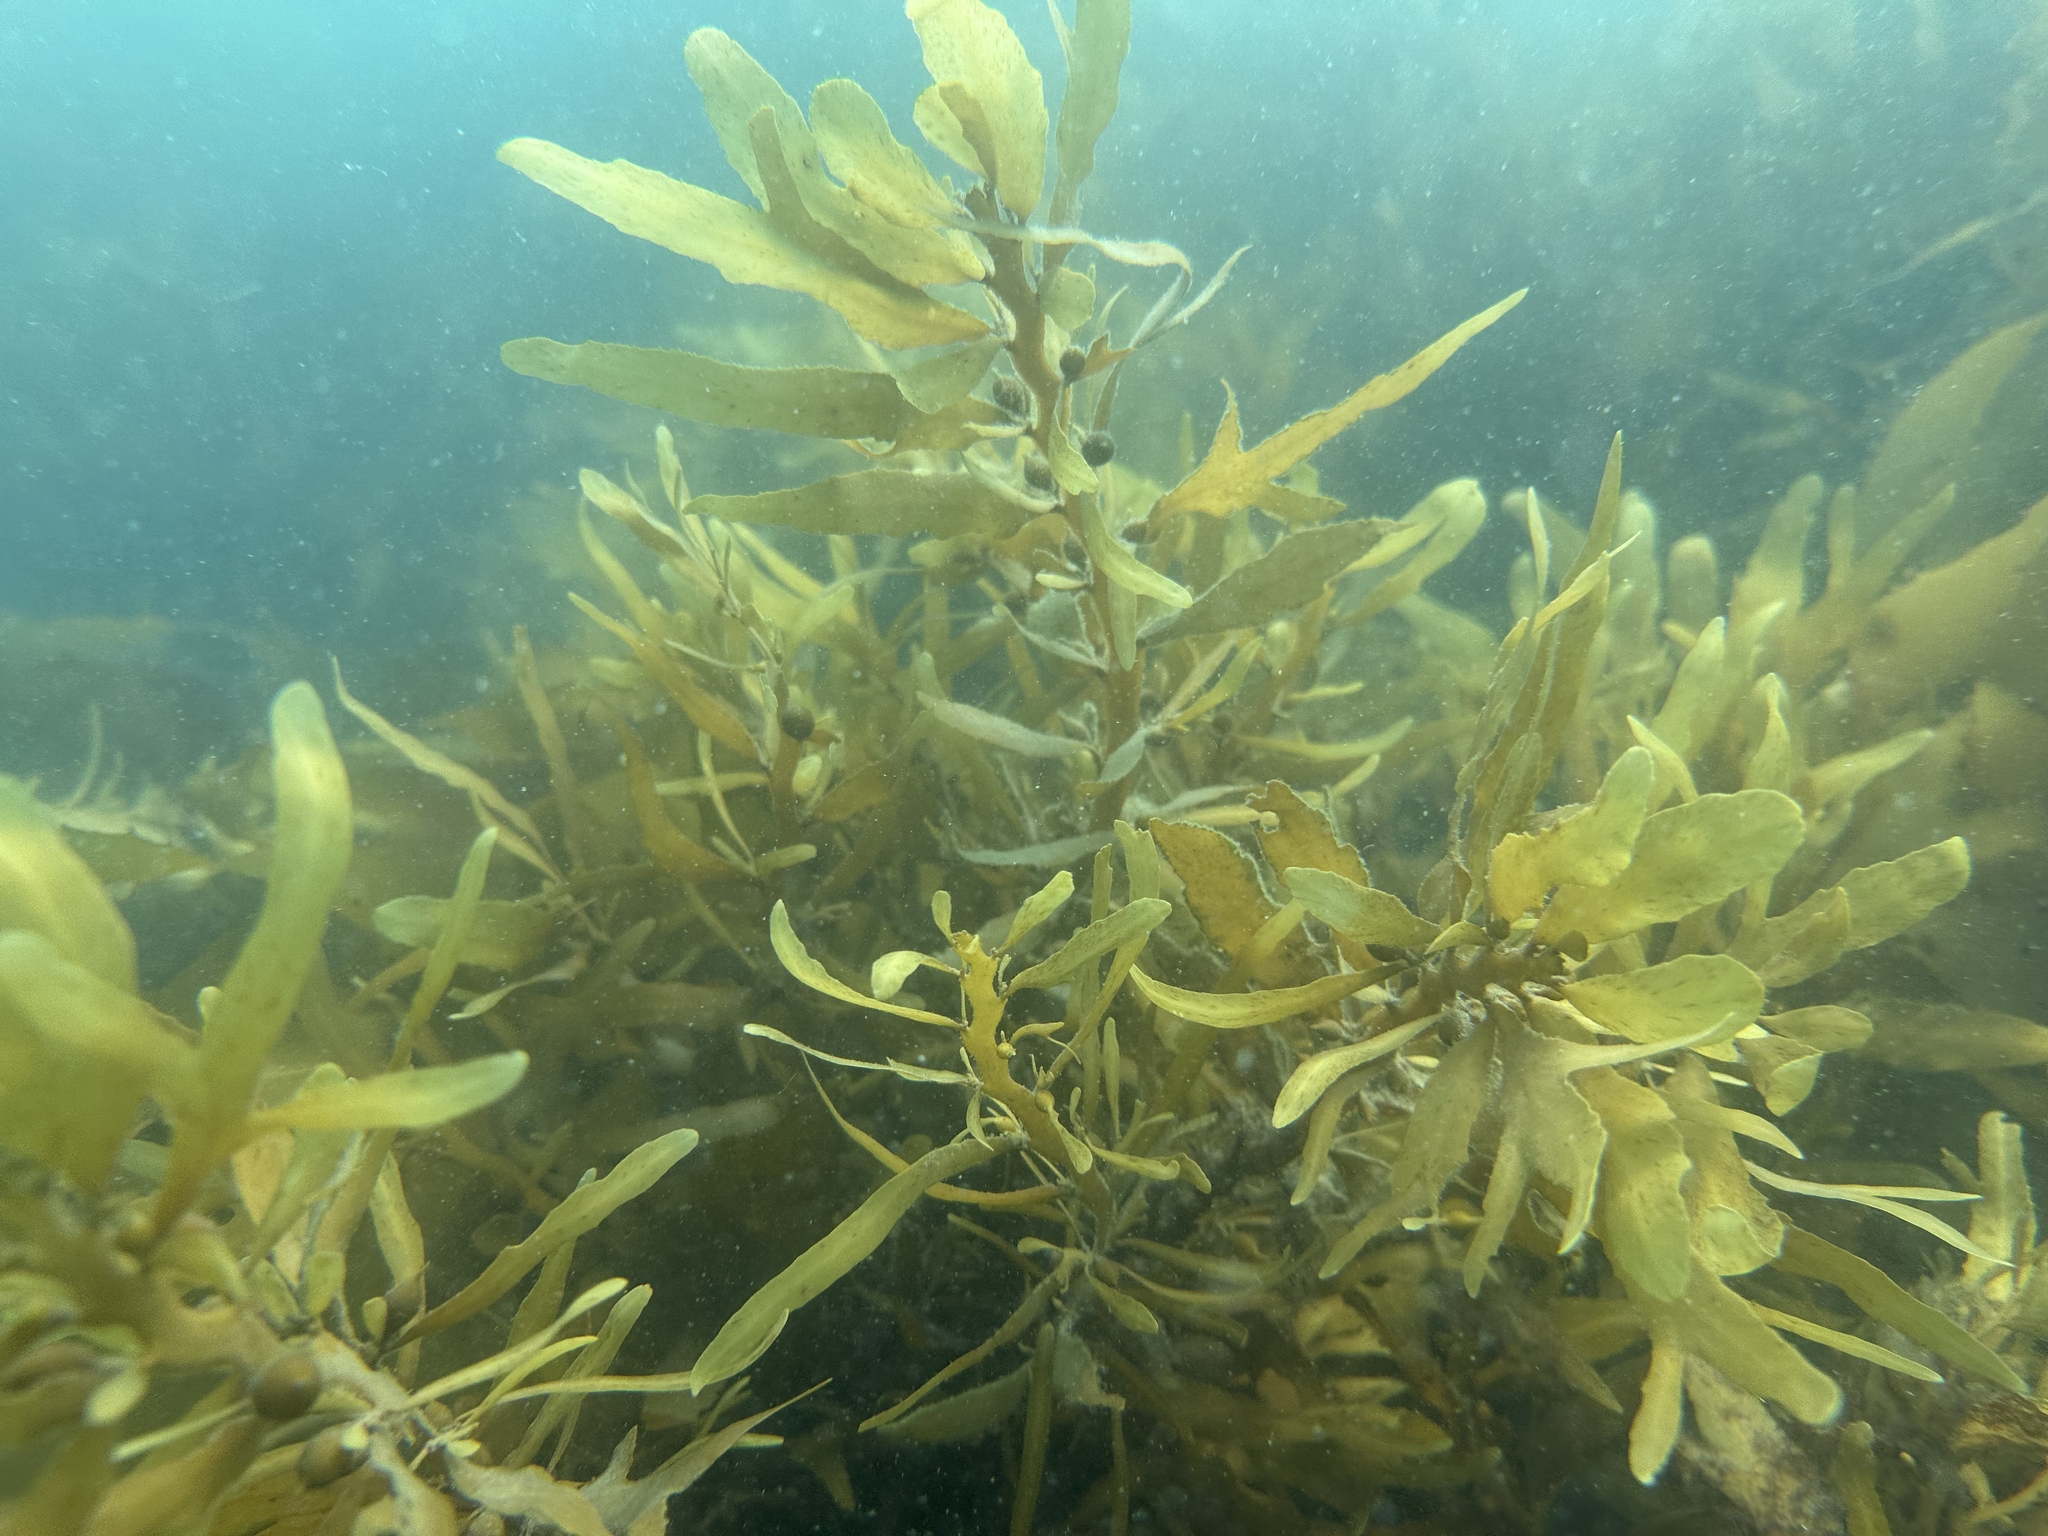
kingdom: Chromista
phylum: Ochrophyta
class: Phaeophyceae
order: Fucales
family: Sargassaceae
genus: Carpophyllum
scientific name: Carpophyllum flexuosum
